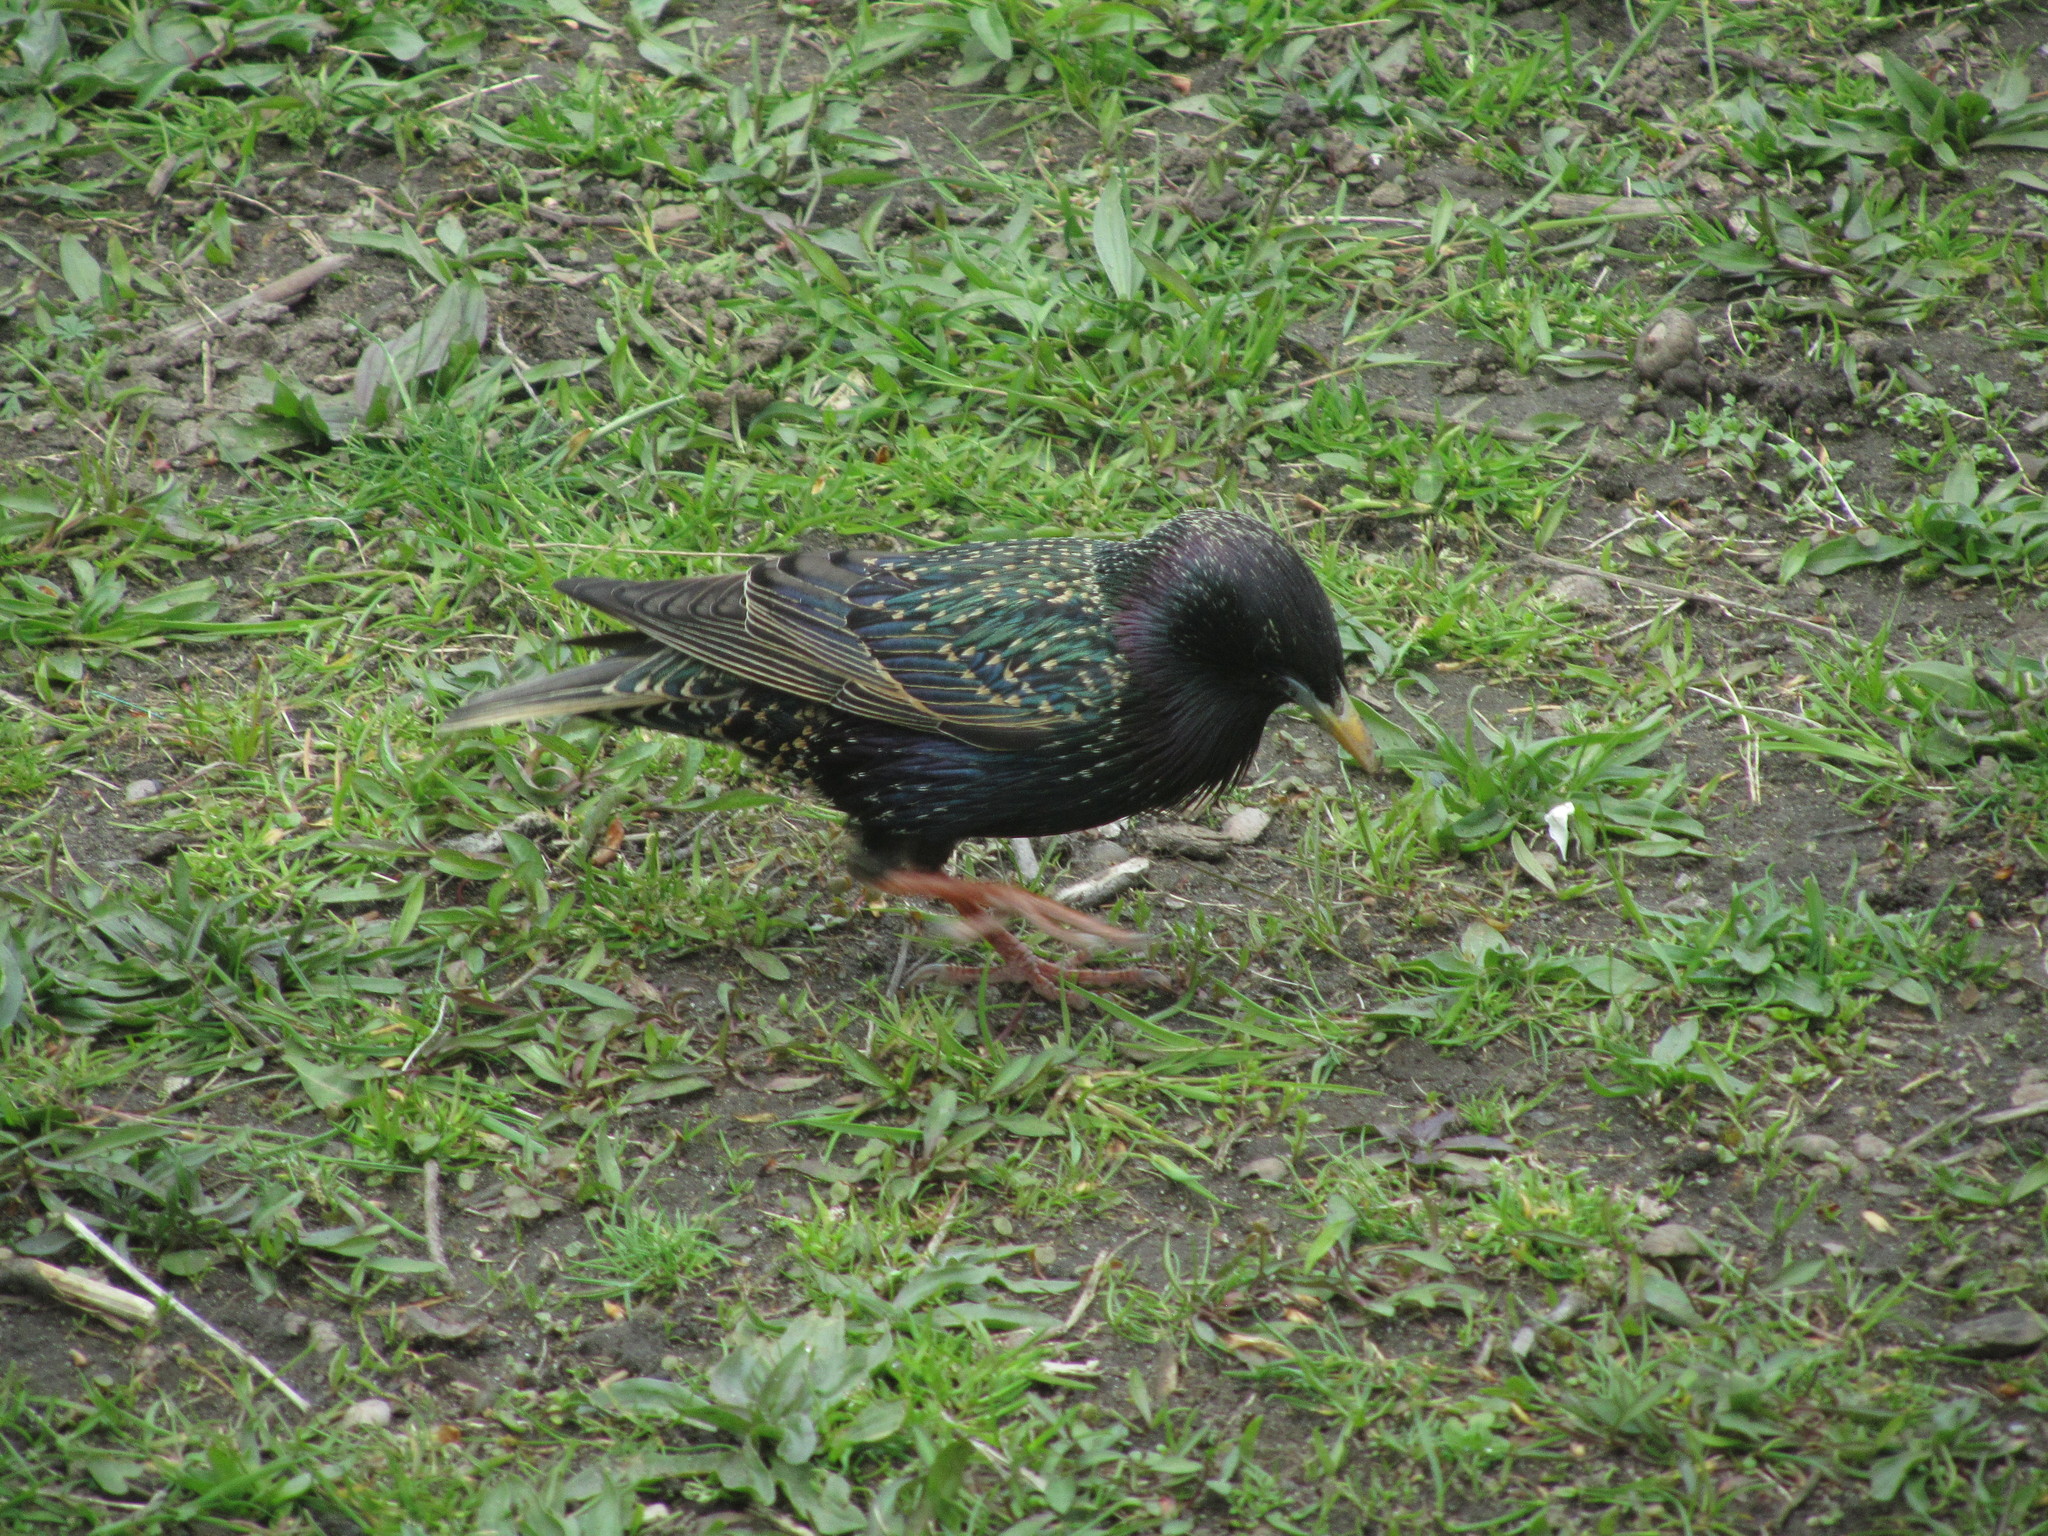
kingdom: Animalia
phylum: Chordata
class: Aves
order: Passeriformes
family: Sturnidae
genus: Sturnus
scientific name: Sturnus vulgaris
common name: Common starling
